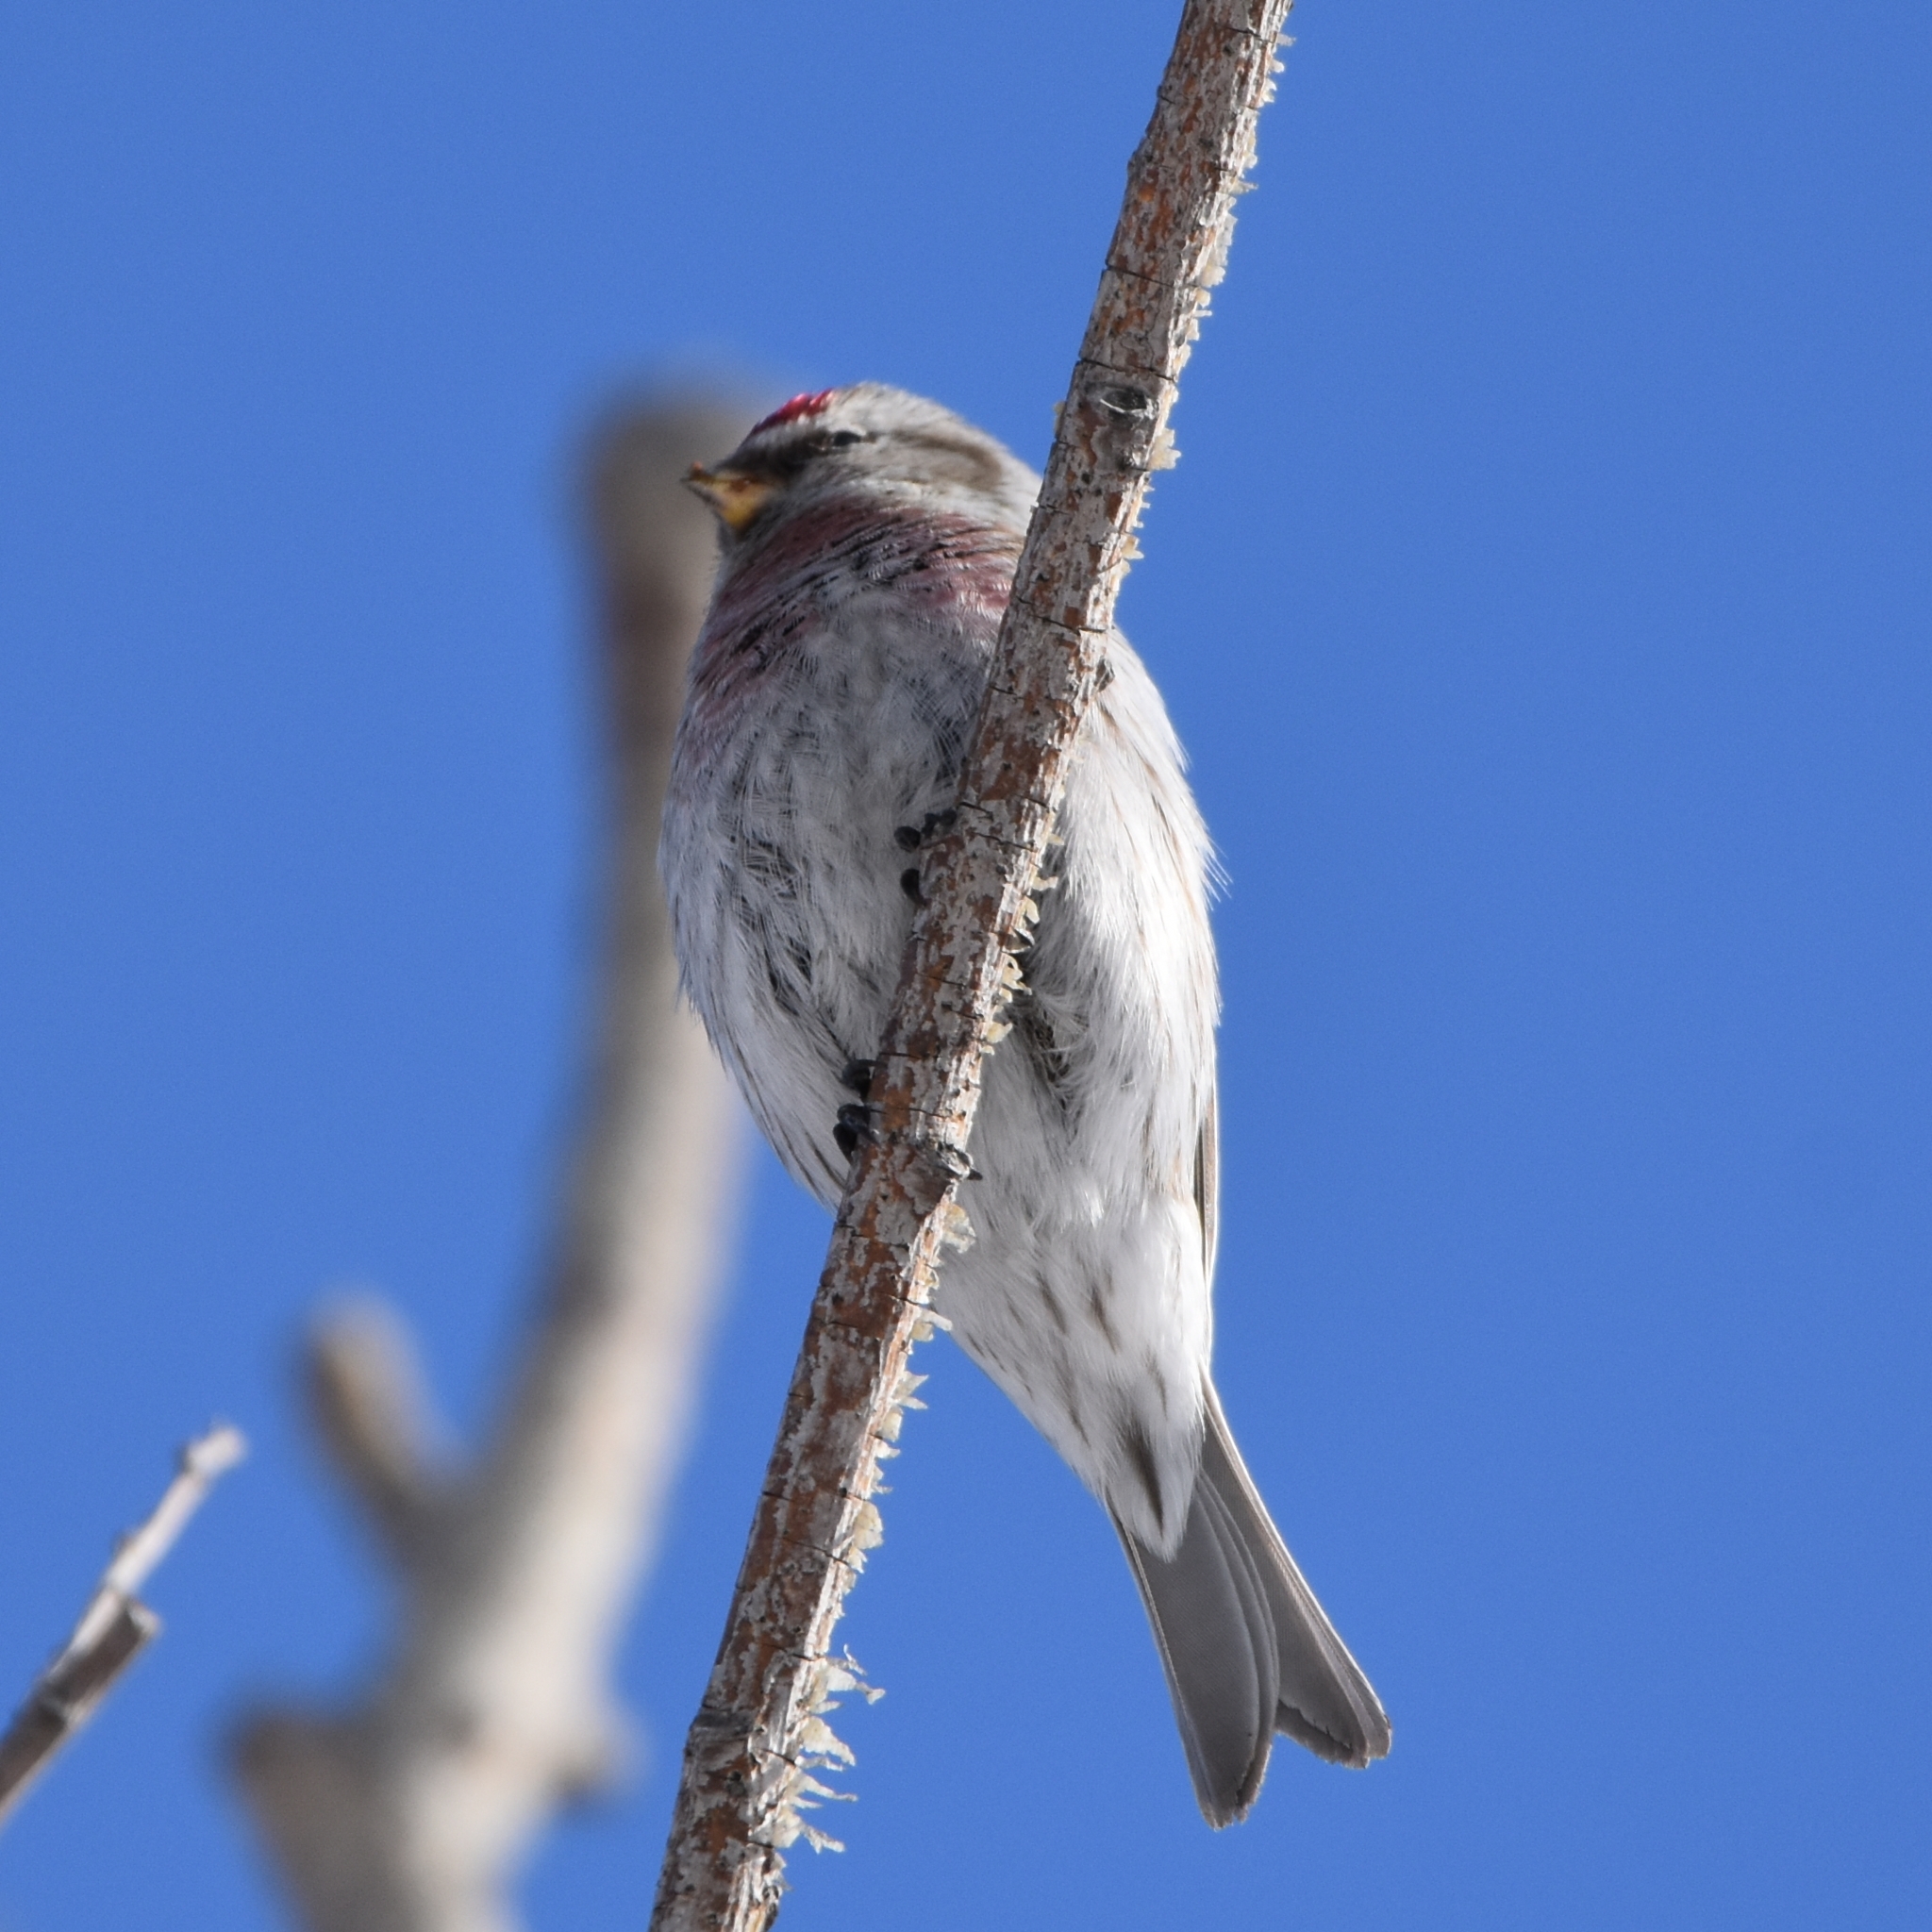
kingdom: Animalia
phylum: Chordata
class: Aves
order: Passeriformes
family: Fringillidae
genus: Acanthis
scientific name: Acanthis flammea
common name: Common redpoll
